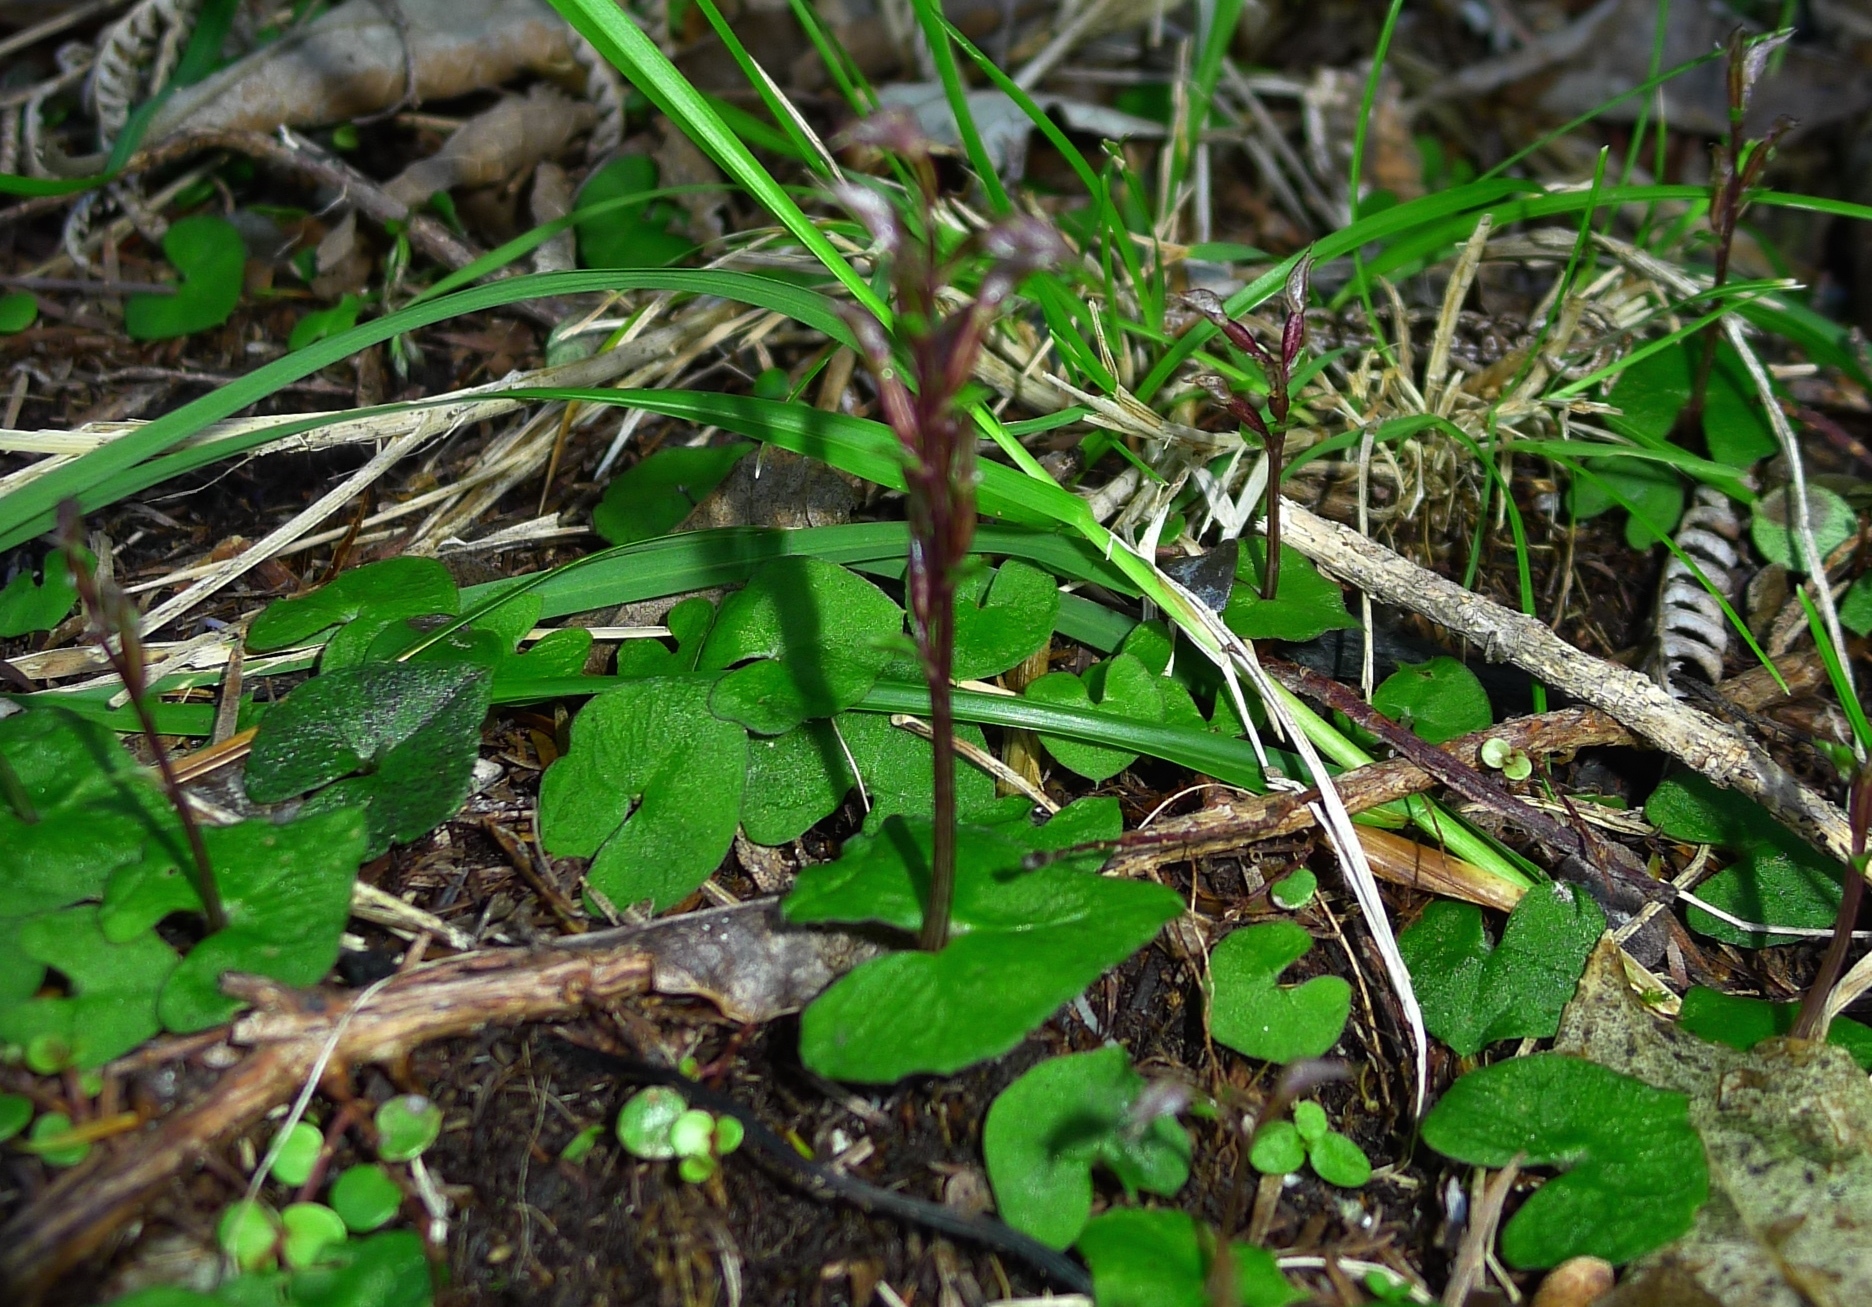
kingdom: Plantae
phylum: Tracheophyta
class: Liliopsida
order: Asparagales
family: Orchidaceae
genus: Acianthus
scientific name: Acianthus sinclairii
